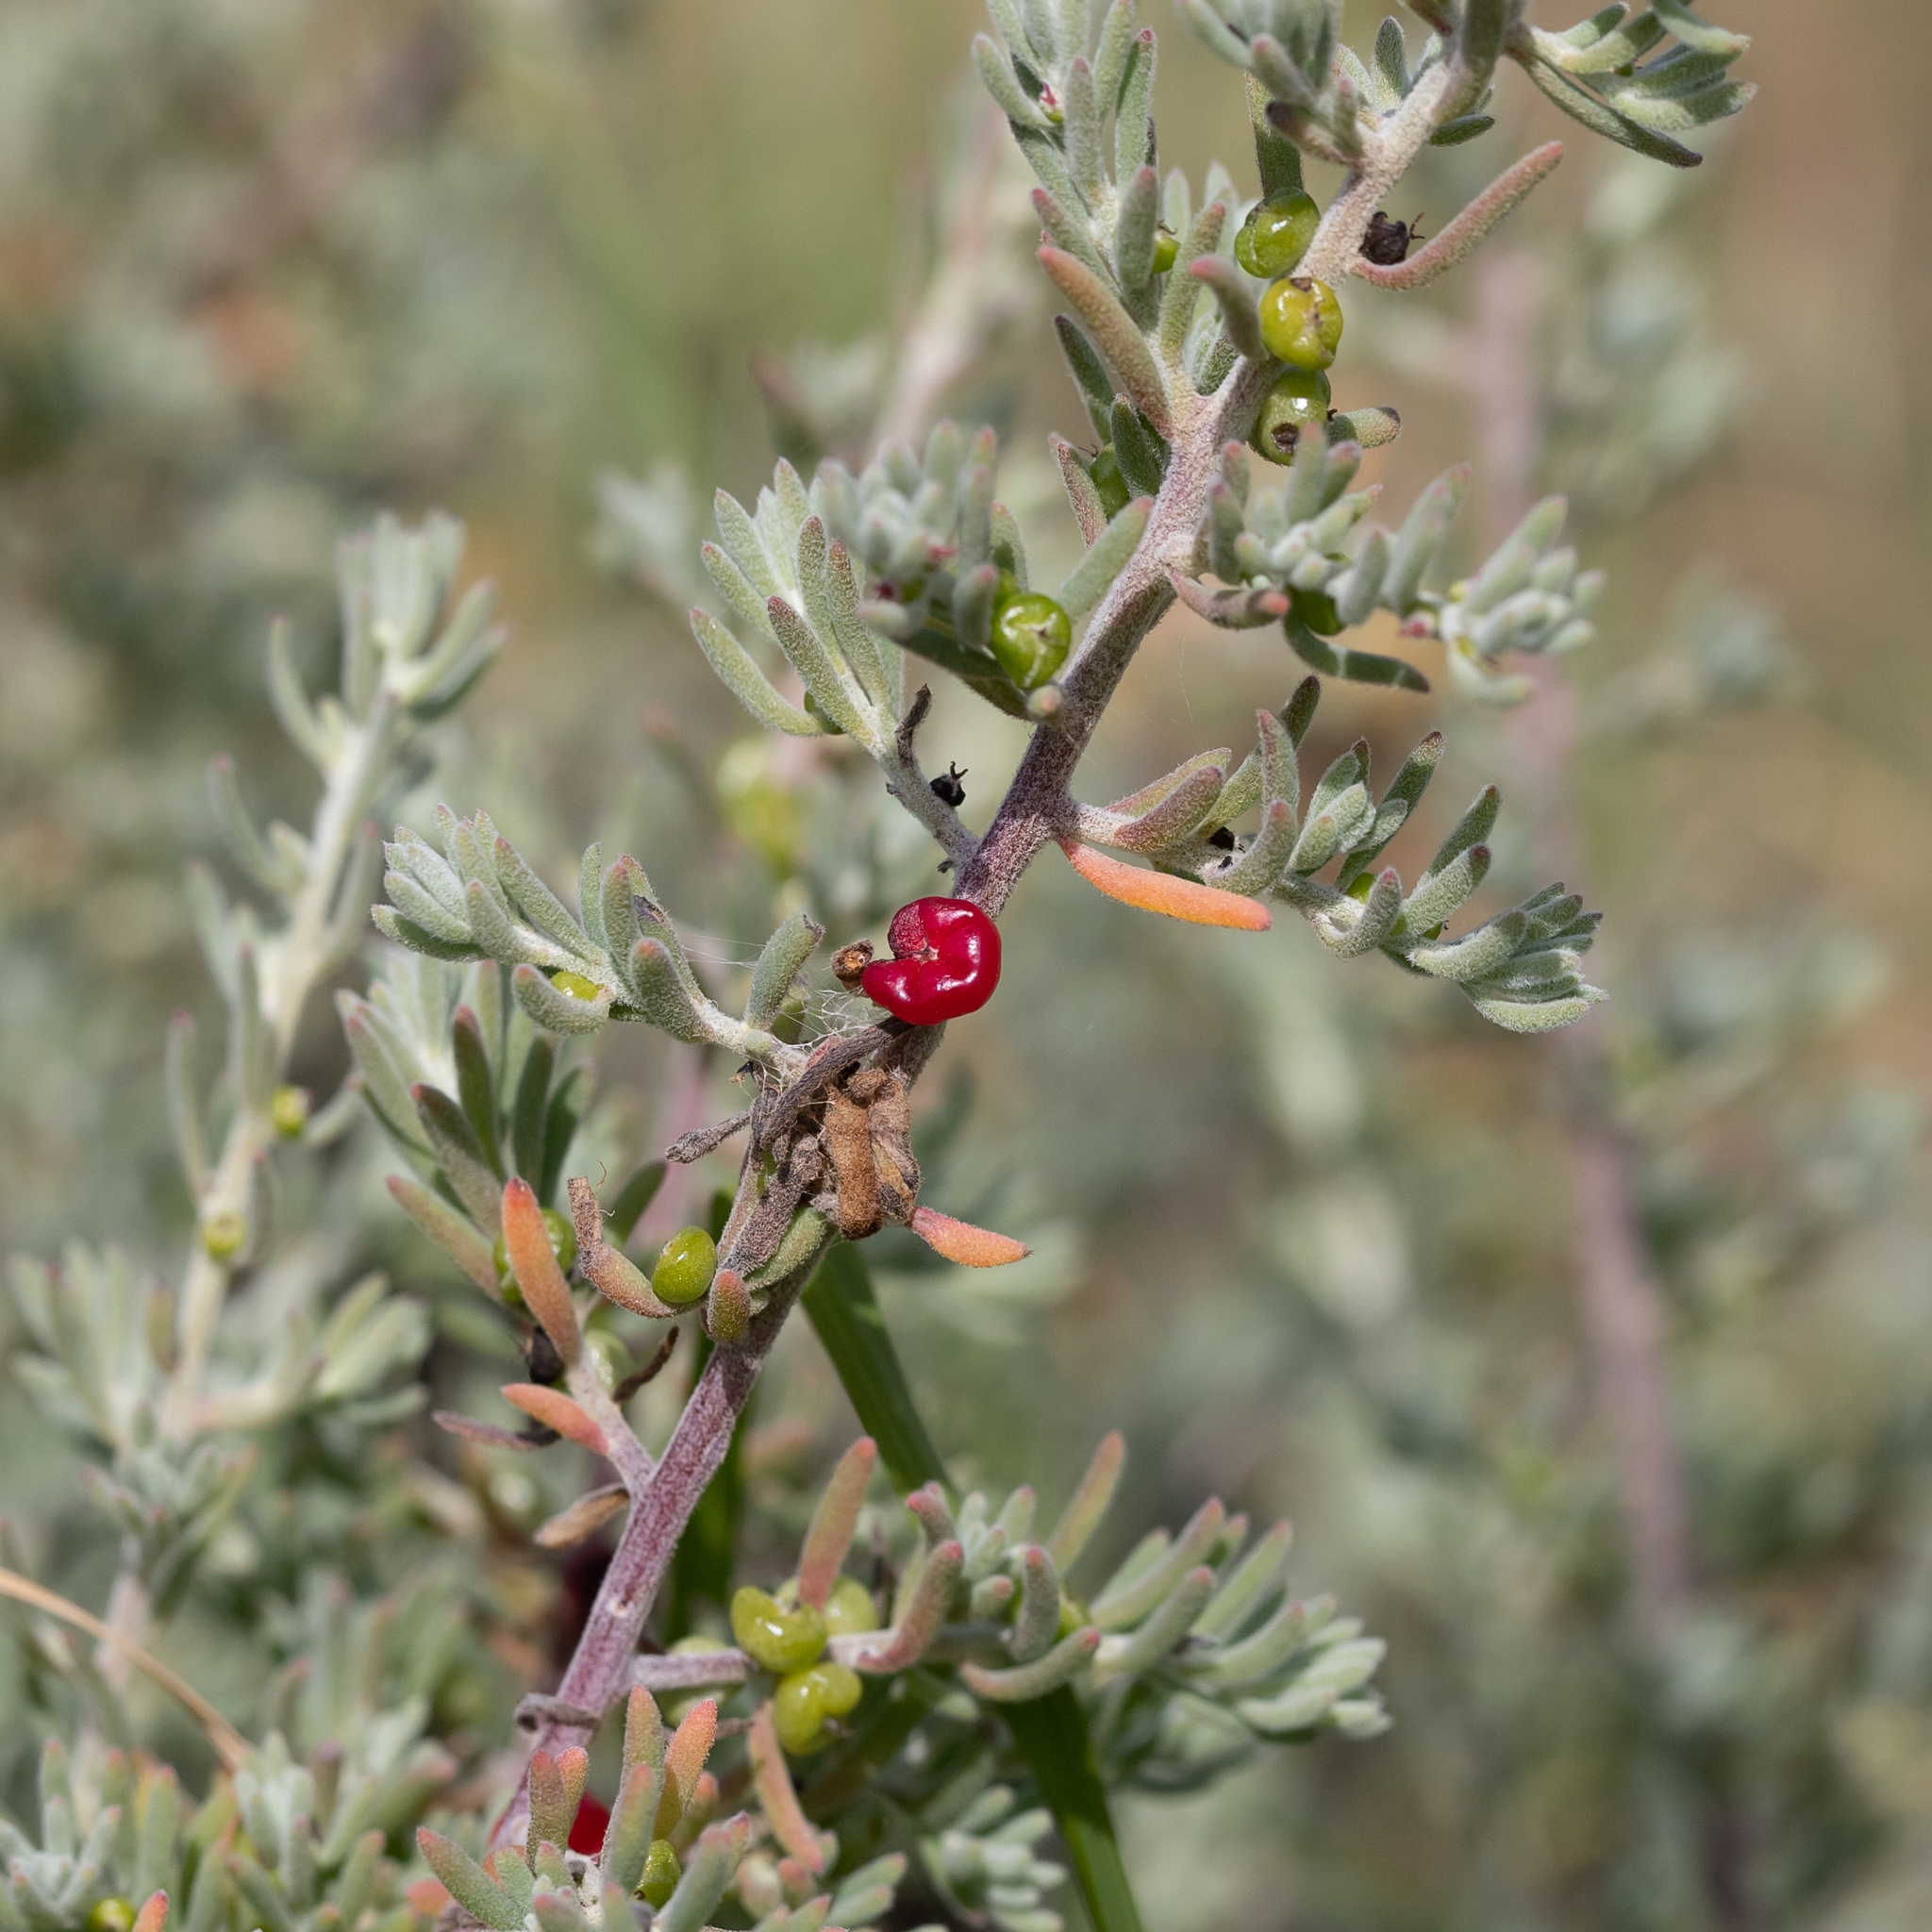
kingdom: Plantae
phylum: Tracheophyta
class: Magnoliopsida
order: Caryophyllales
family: Amaranthaceae
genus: Enchylaena
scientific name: Enchylaena tomentosa
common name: Ruby saltbush
